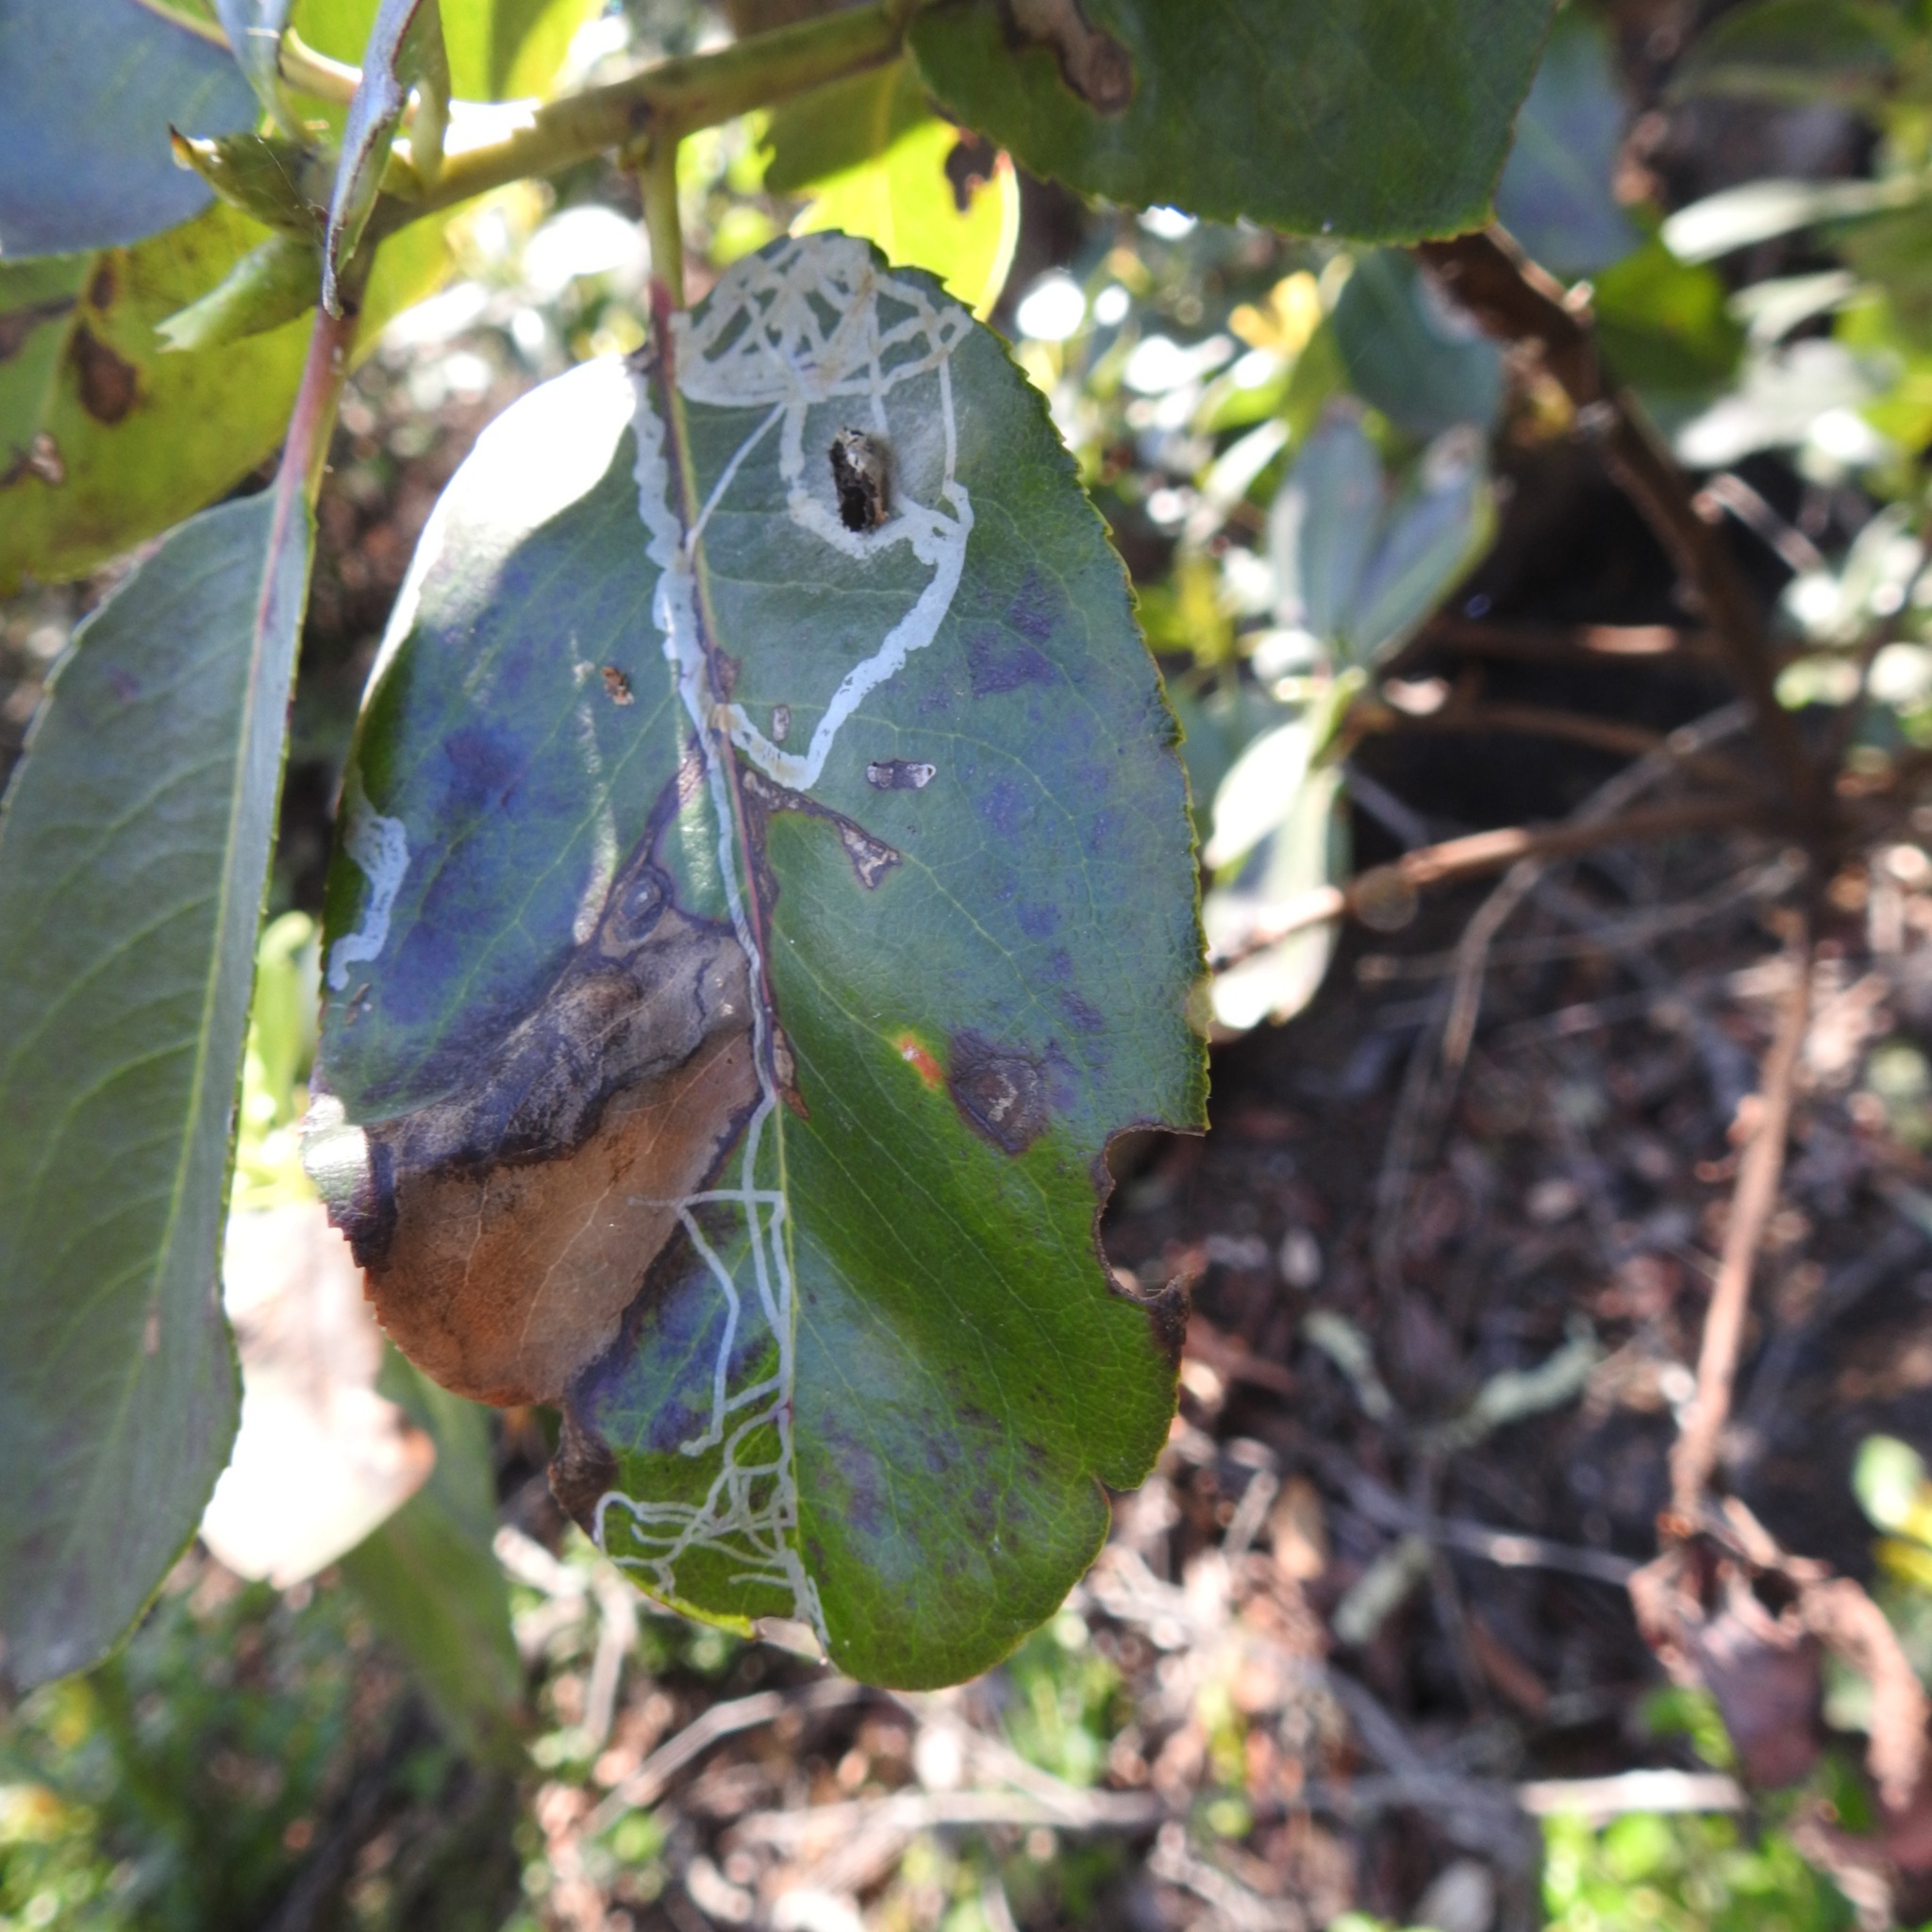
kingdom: Plantae
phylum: Tracheophyta
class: Magnoliopsida
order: Ericales
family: Ericaceae
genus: Arbutus
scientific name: Arbutus menziesii
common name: Pacific madrone
